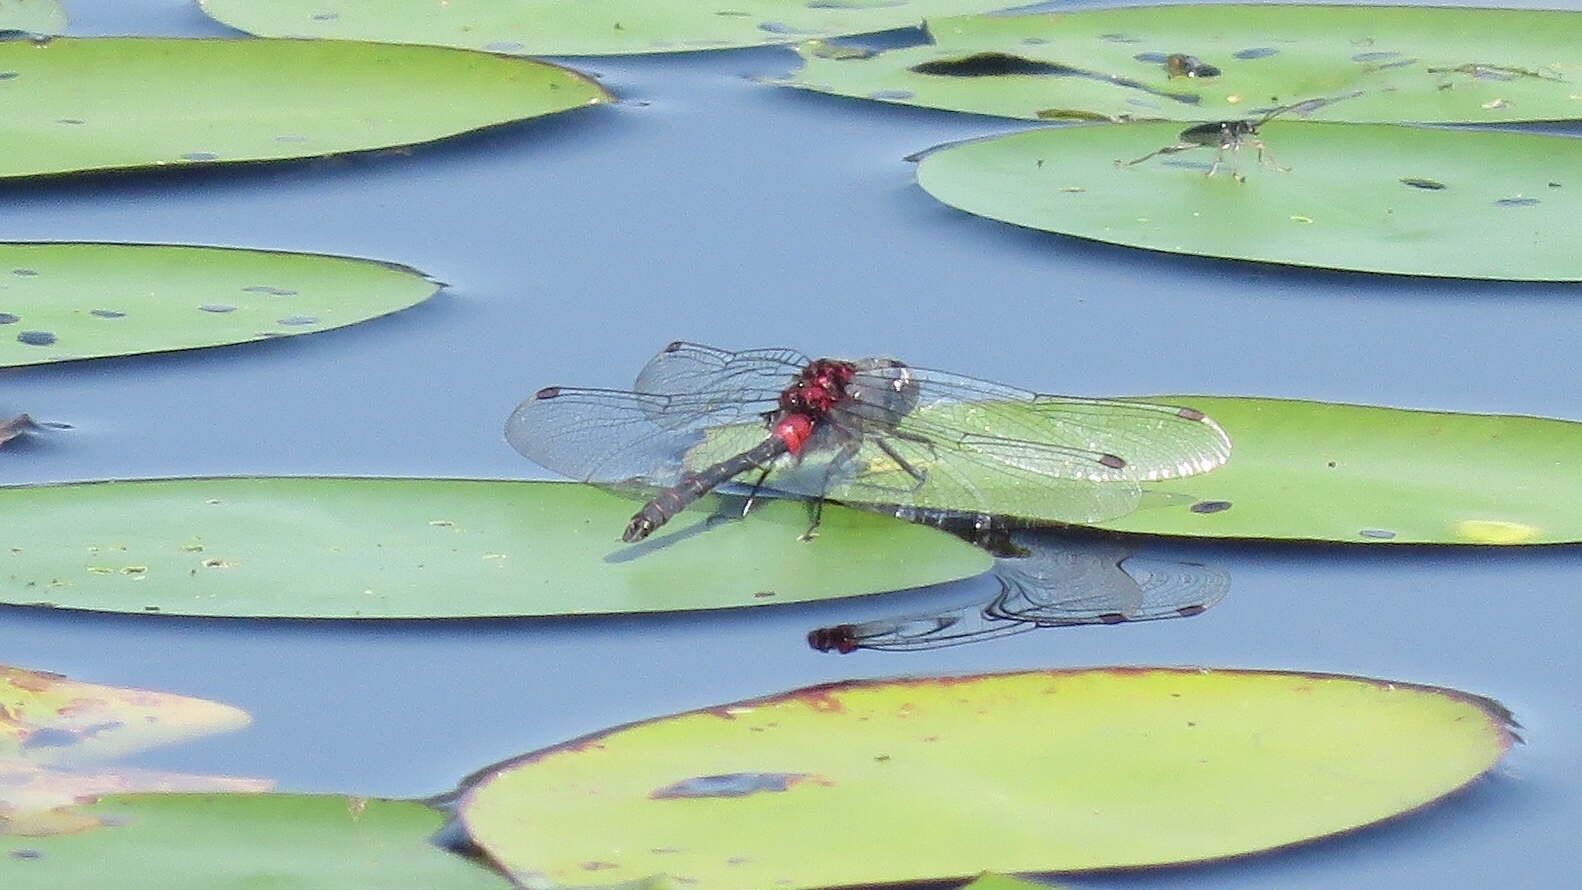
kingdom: Animalia
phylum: Arthropoda
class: Insecta
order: Odonata
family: Libellulidae
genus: Leucorrhinia
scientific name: Leucorrhinia glacialis
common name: Crimson-ringed whiteface
